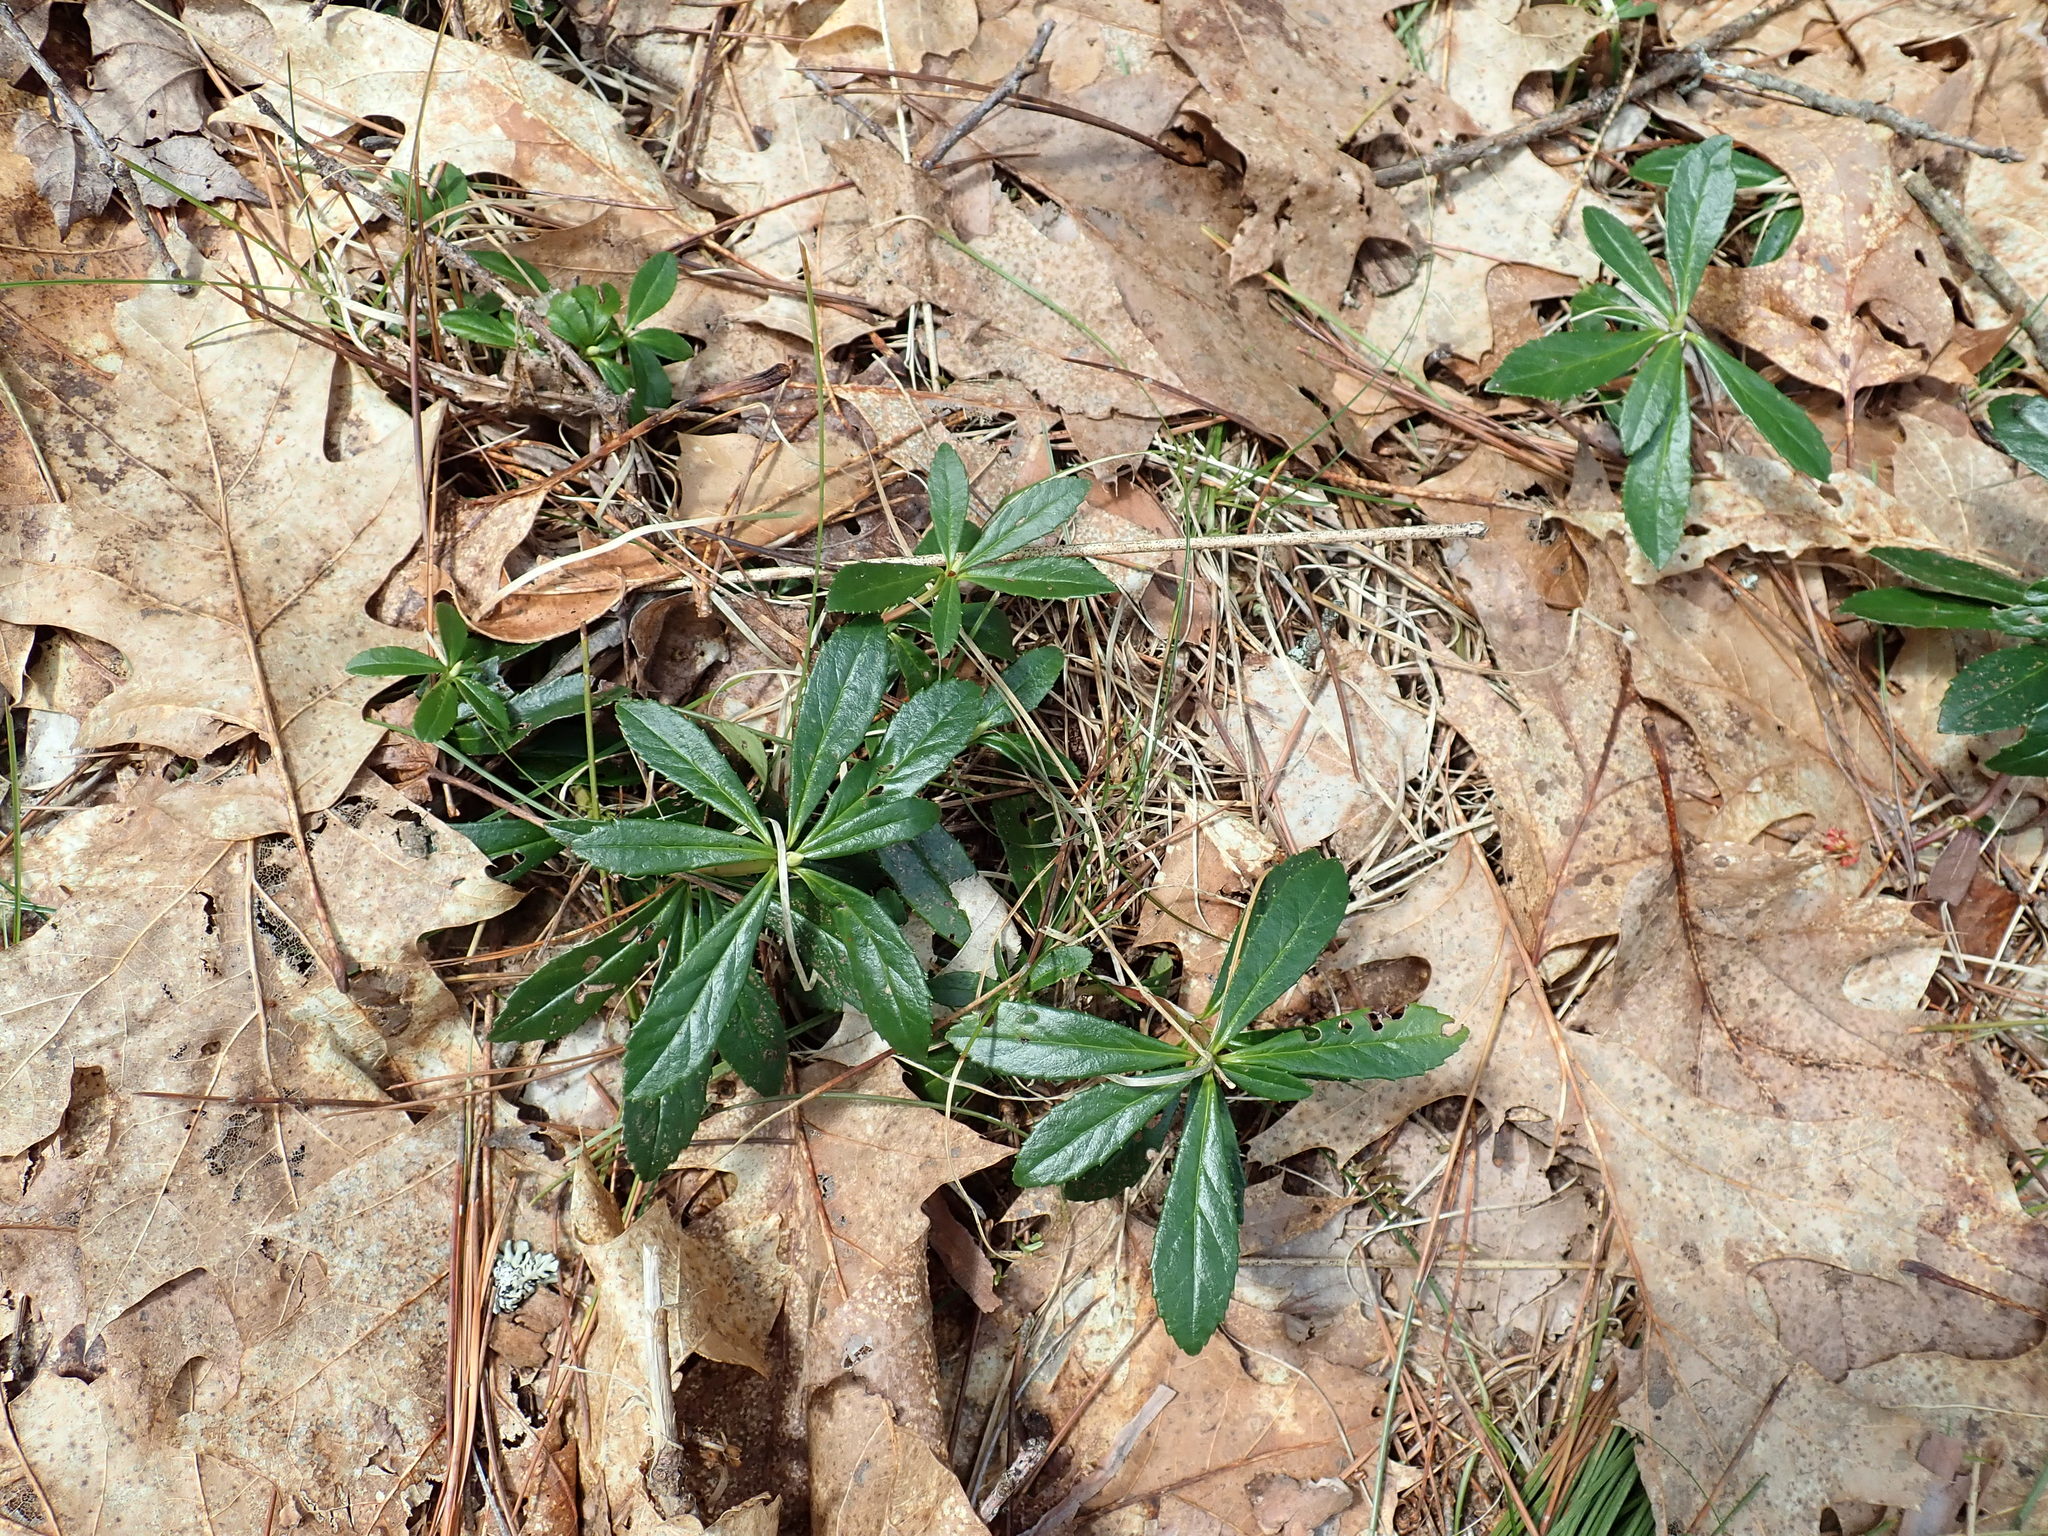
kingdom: Plantae
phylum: Tracheophyta
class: Magnoliopsida
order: Ericales
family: Ericaceae
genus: Chimaphila
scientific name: Chimaphila umbellata
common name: Pipsissewa
